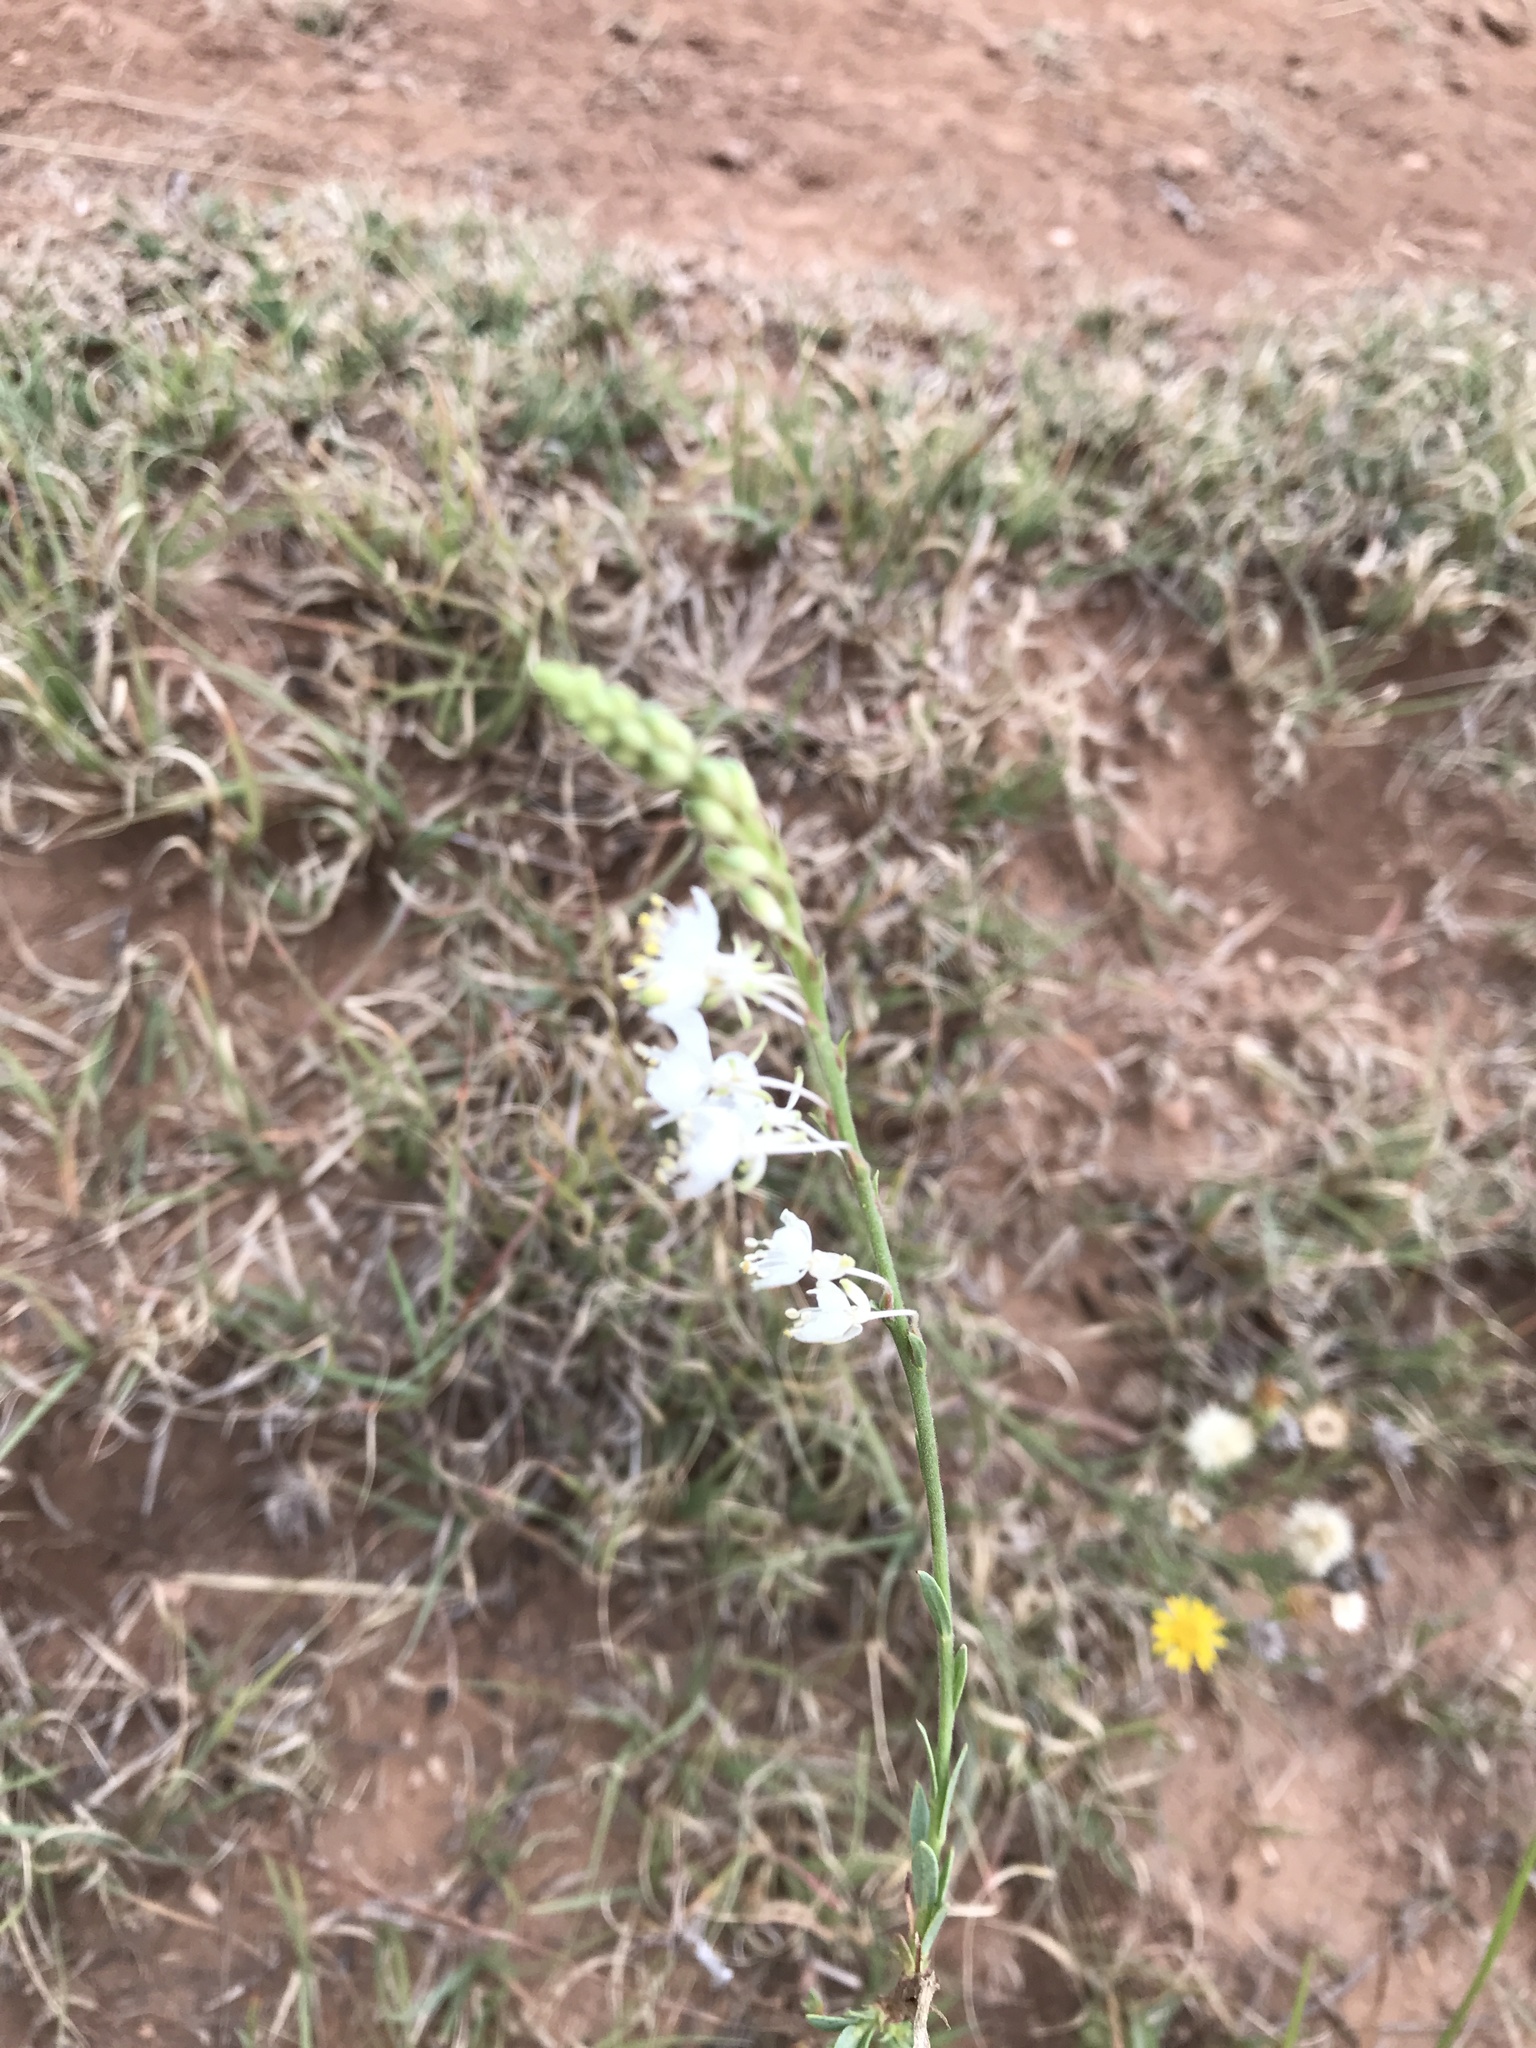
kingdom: Plantae
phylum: Tracheophyta
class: Magnoliopsida
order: Myrtales
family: Onagraceae
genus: Oenothera
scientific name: Oenothera glaucifolia
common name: False gaura
